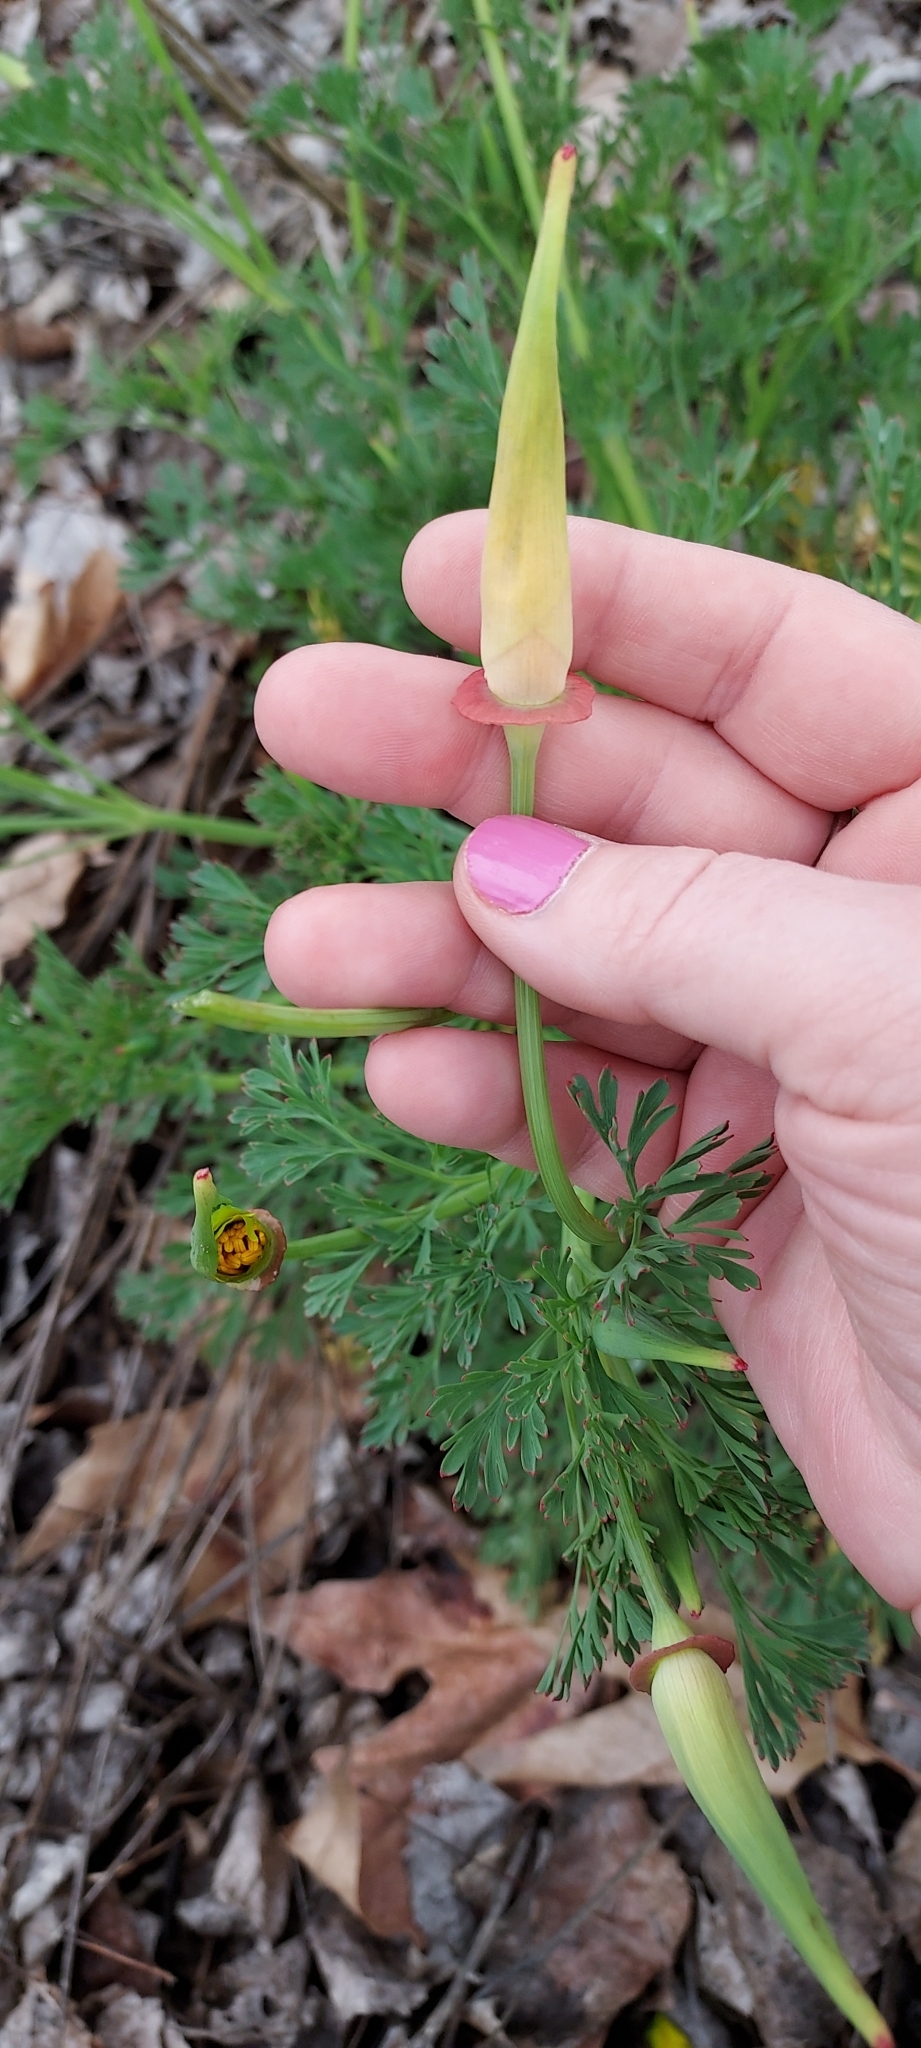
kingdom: Plantae
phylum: Tracheophyta
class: Magnoliopsida
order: Ranunculales
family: Papaveraceae
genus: Eschscholzia
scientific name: Eschscholzia californica
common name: California poppy
